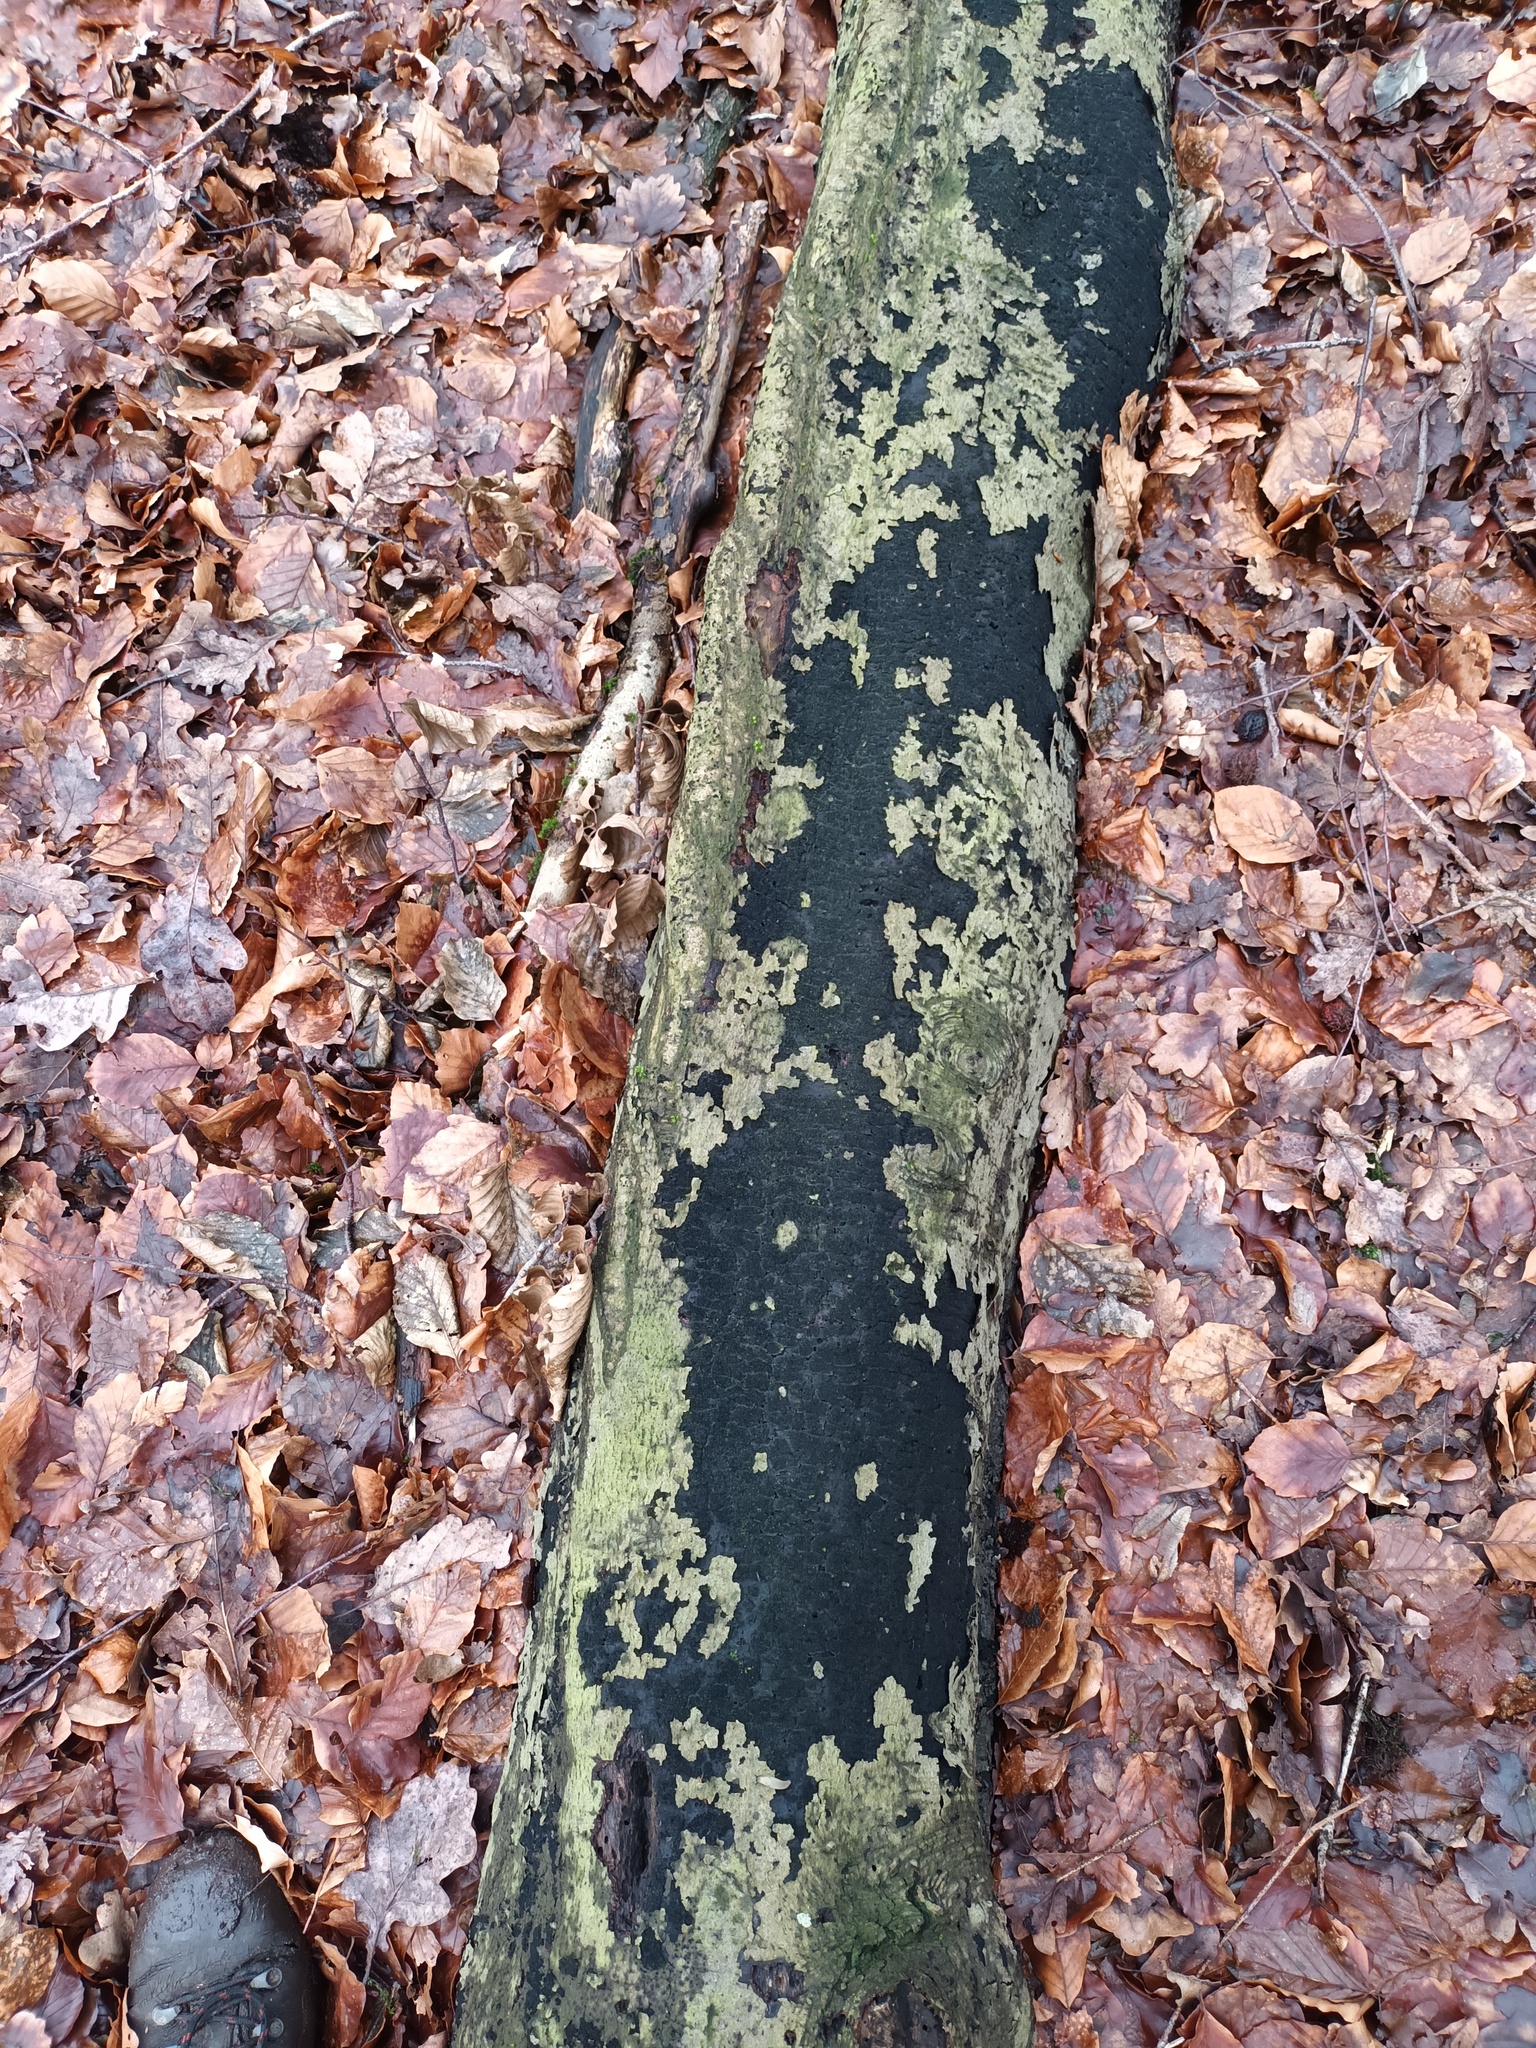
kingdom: Fungi
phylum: Ascomycota
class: Sordariomycetes
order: Xylariales
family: Diatrypaceae
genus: Eutypa
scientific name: Eutypa spinosa
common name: Spiral tarcrust
